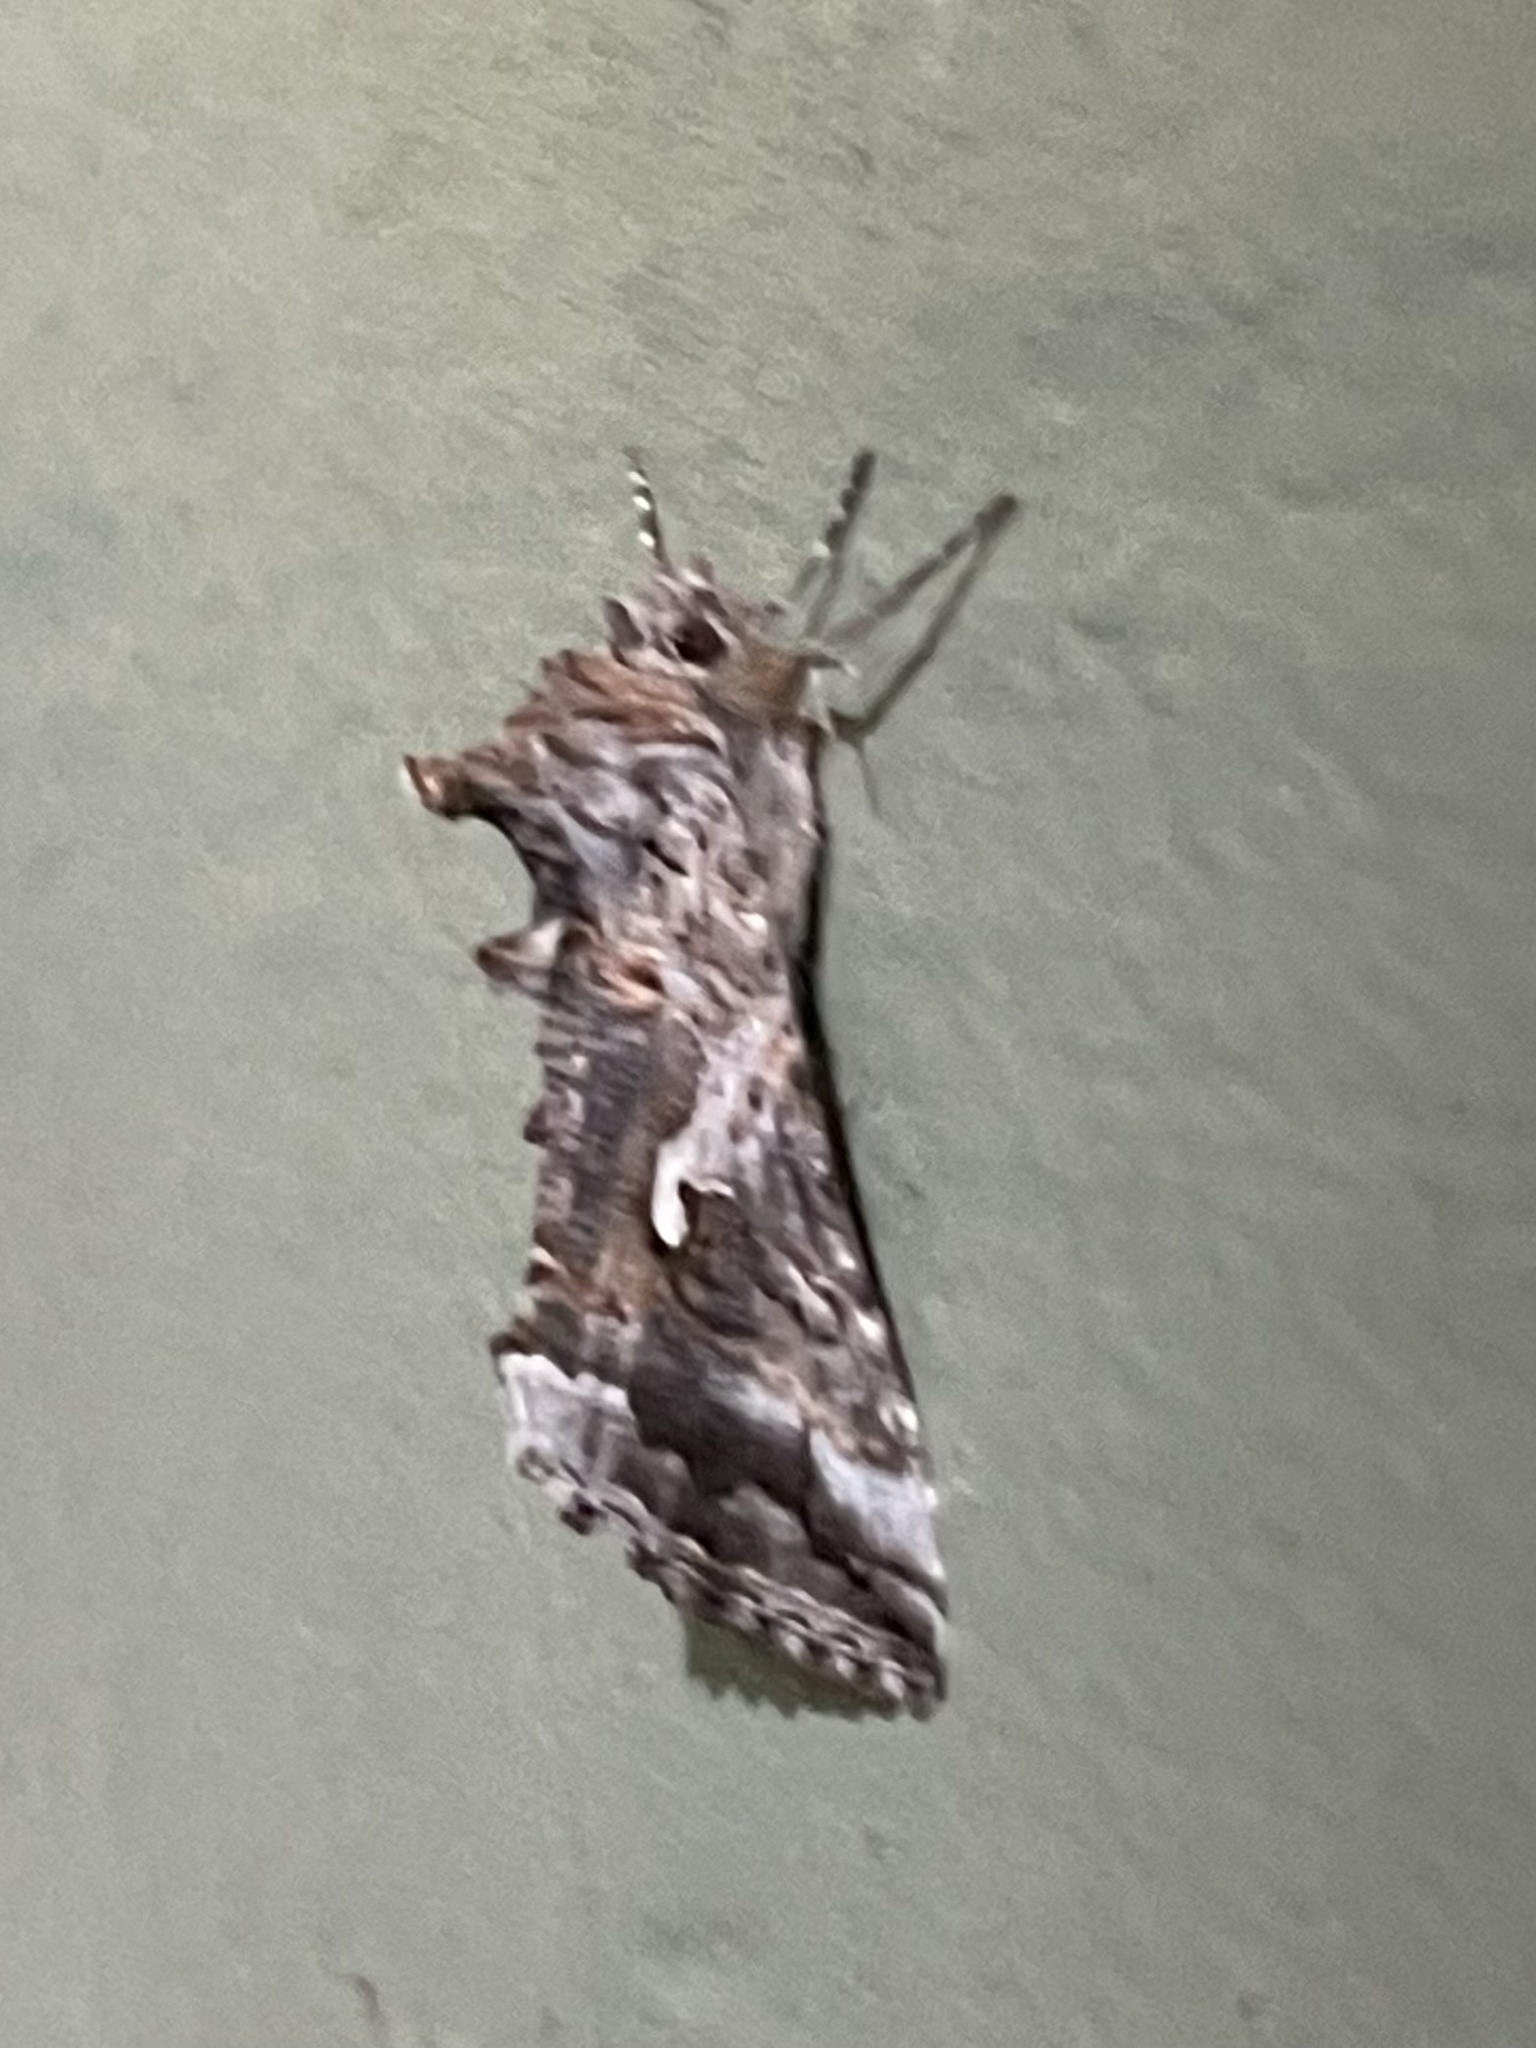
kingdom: Animalia
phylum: Arthropoda
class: Insecta
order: Lepidoptera
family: Noctuidae
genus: Autographa
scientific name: Autographa californica
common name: Alfalfa looper
